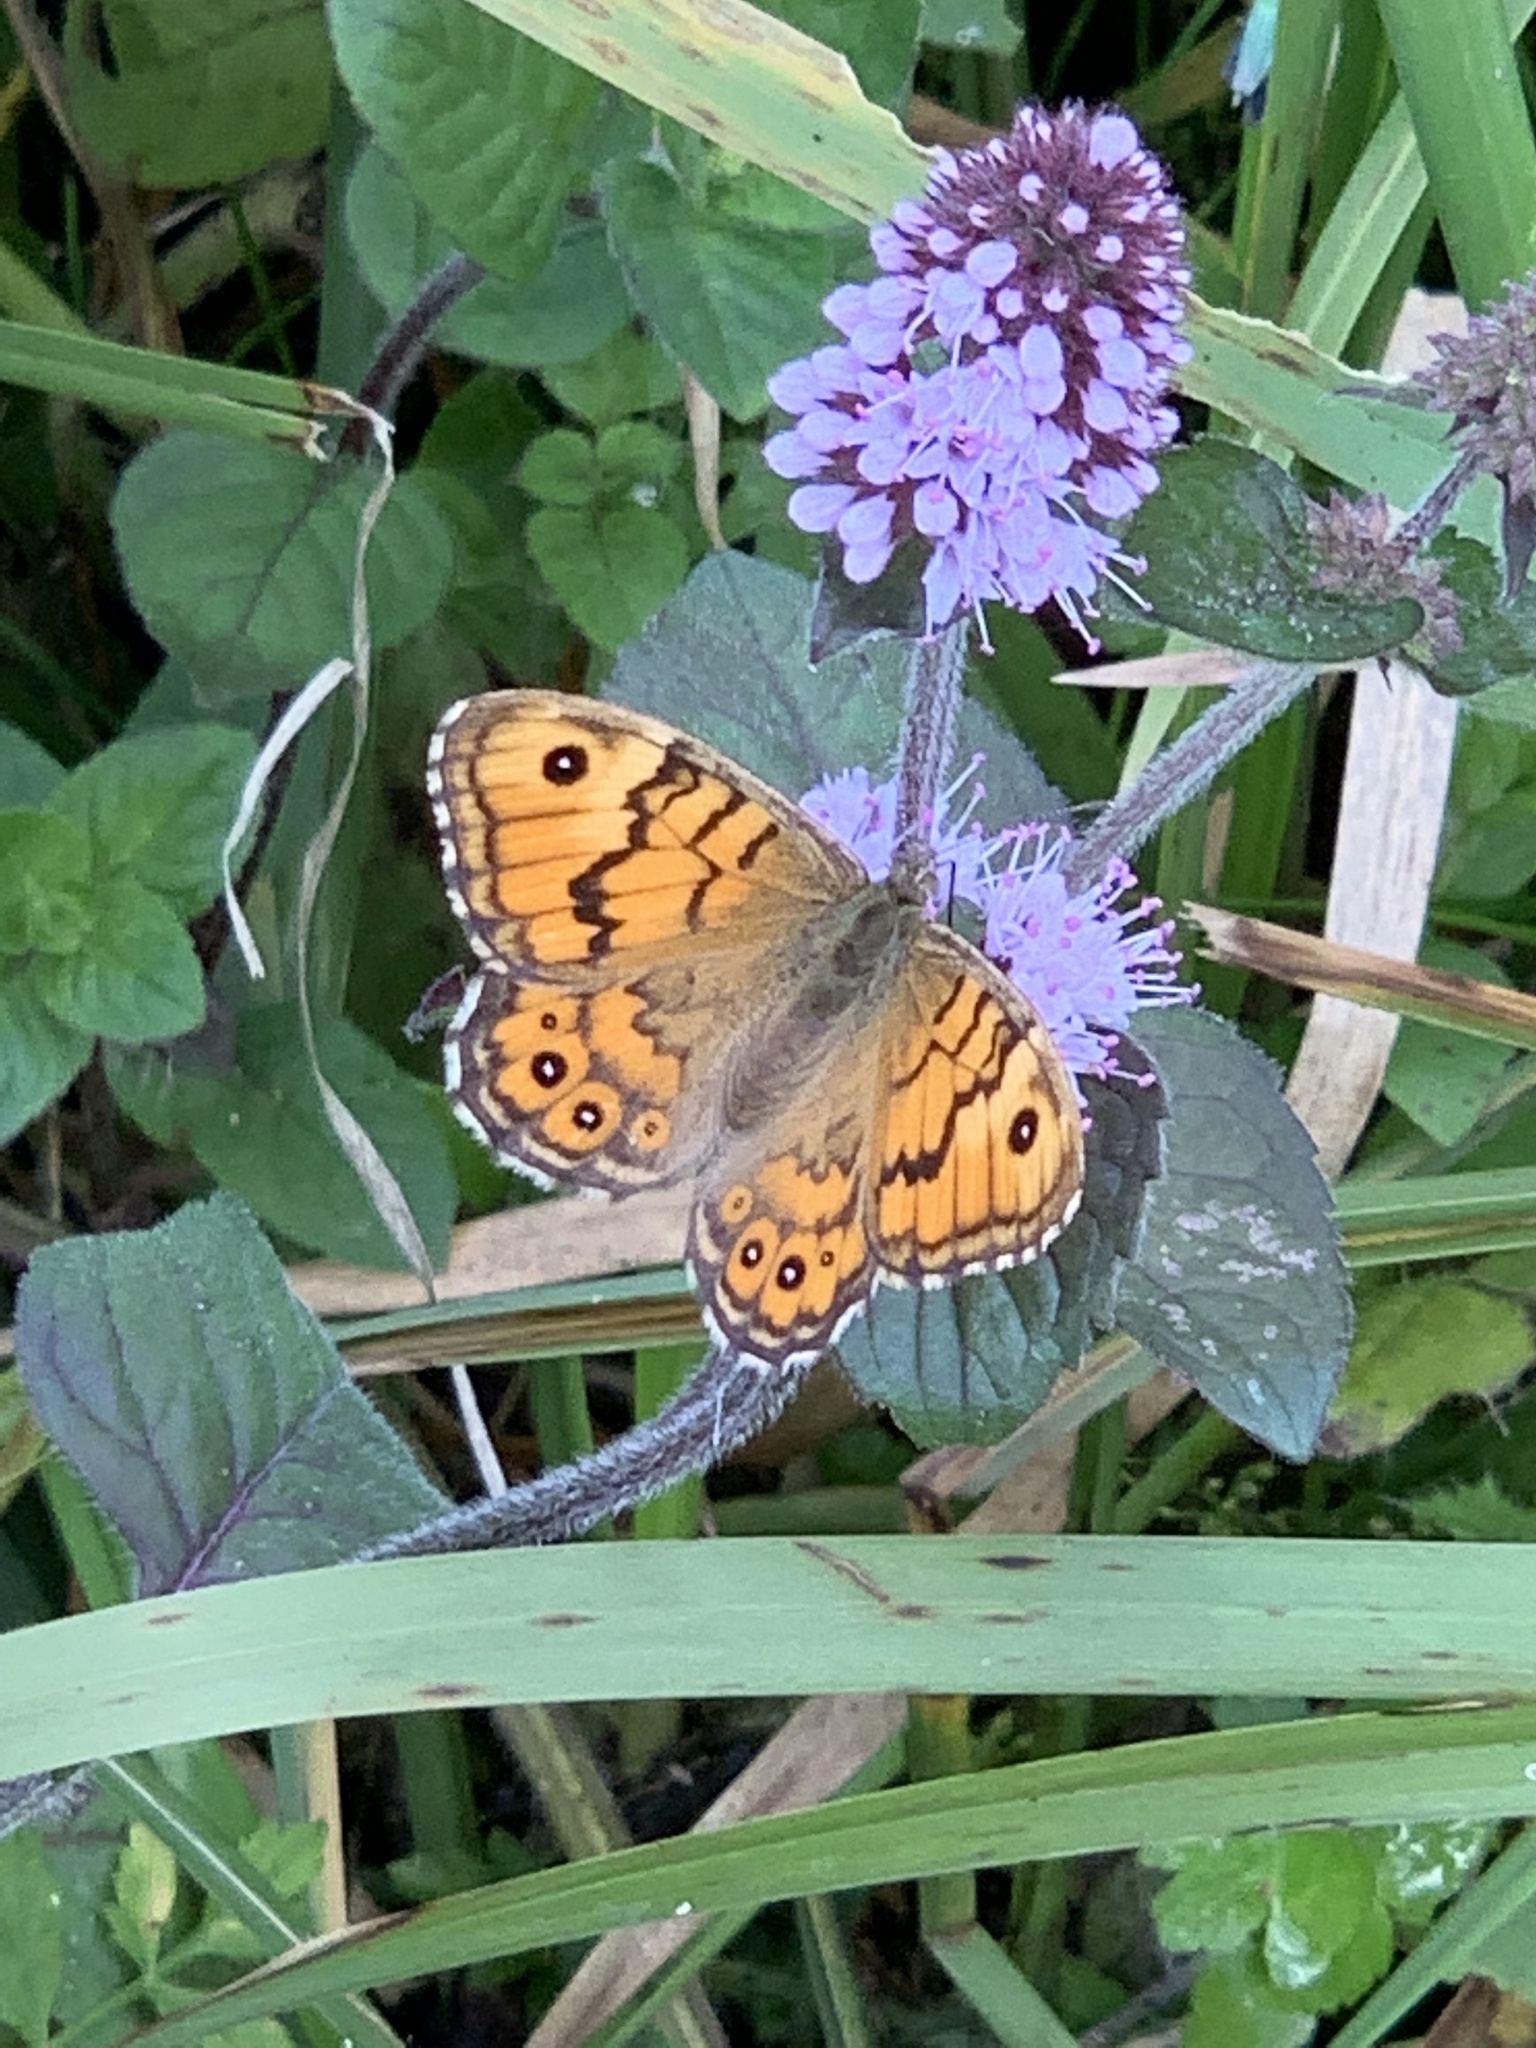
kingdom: Animalia
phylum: Arthropoda
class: Insecta
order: Lepidoptera
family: Nymphalidae
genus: Pararge
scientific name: Pararge Lasiommata megera
